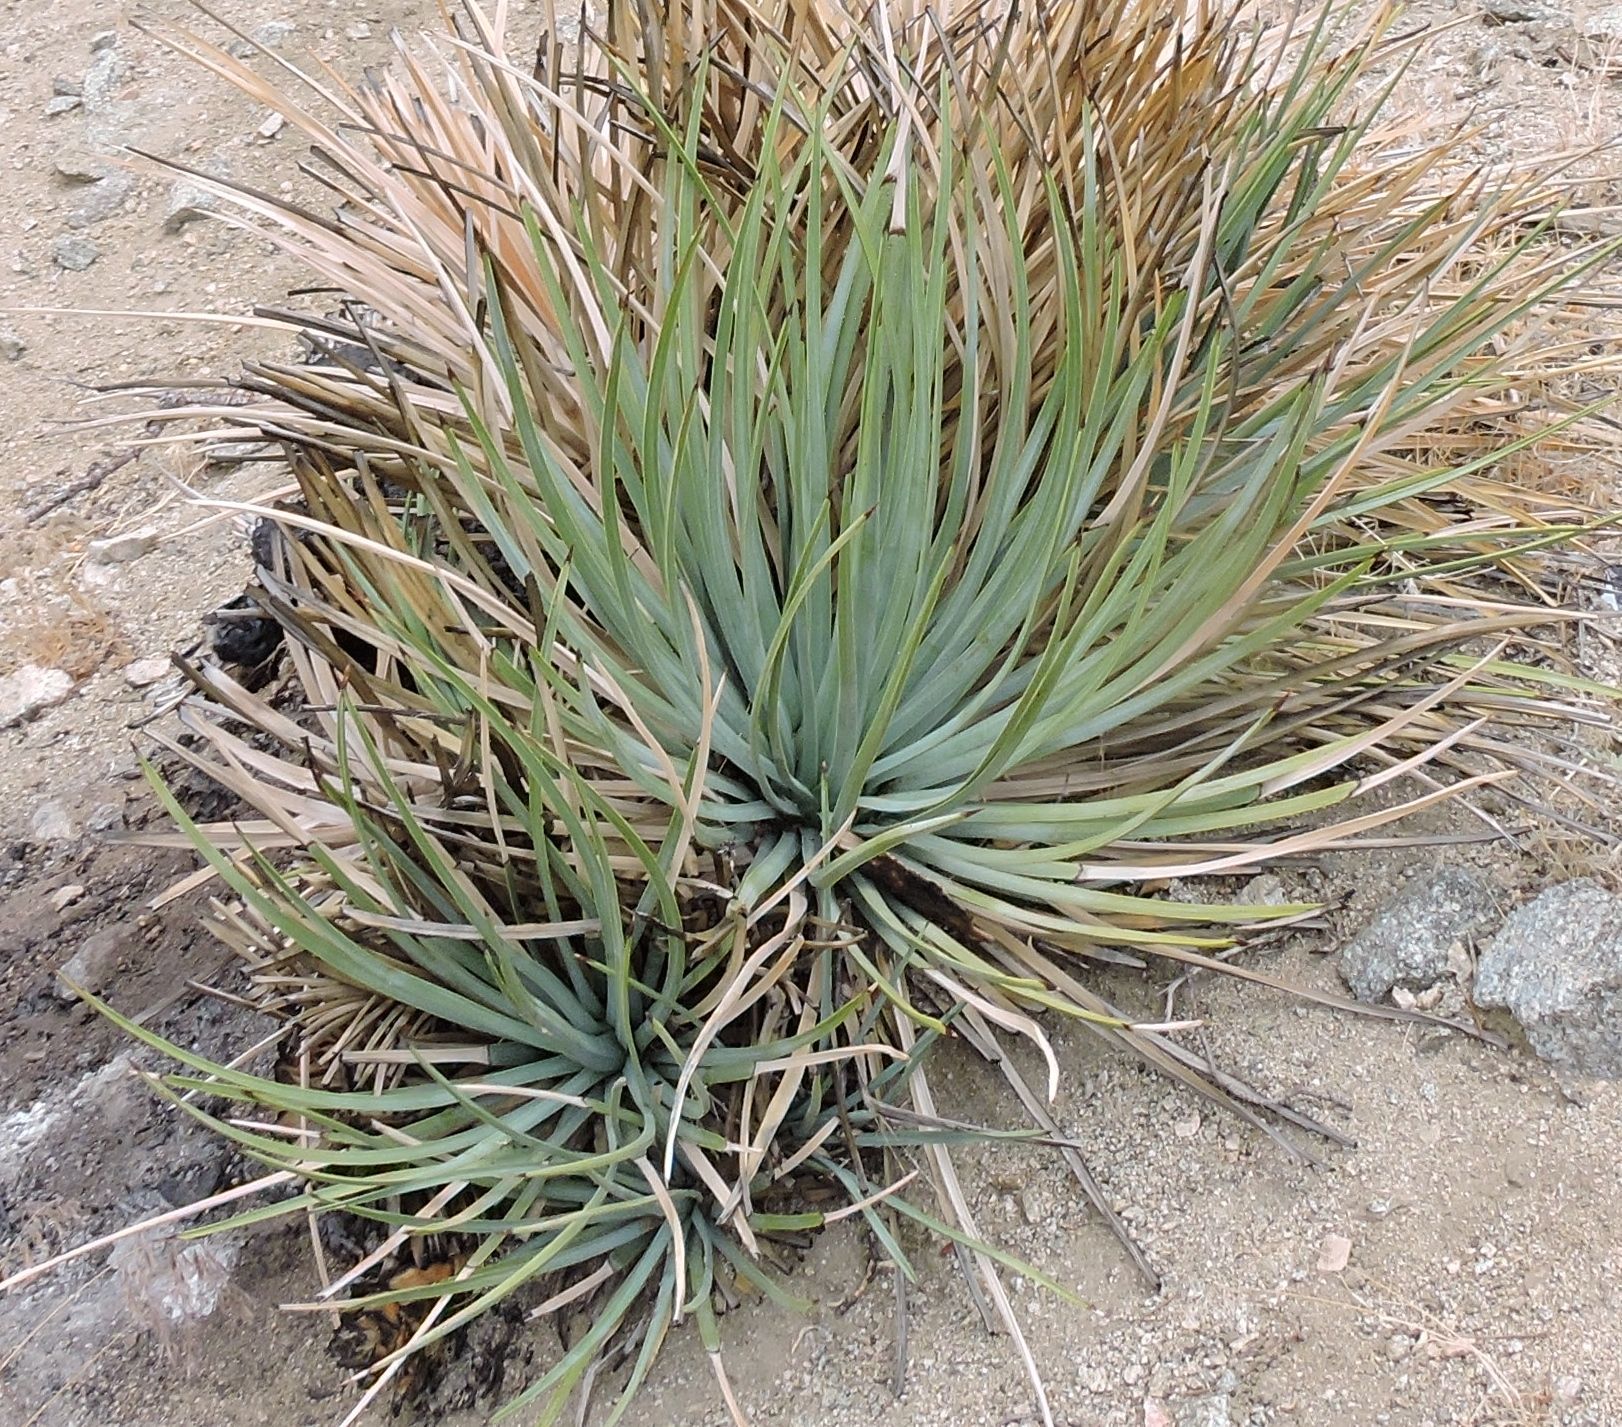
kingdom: Plantae
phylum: Tracheophyta
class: Liliopsida
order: Asparagales
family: Asparagaceae
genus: Hesperoyucca
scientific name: Hesperoyucca whipplei
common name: Our lord's-candle
